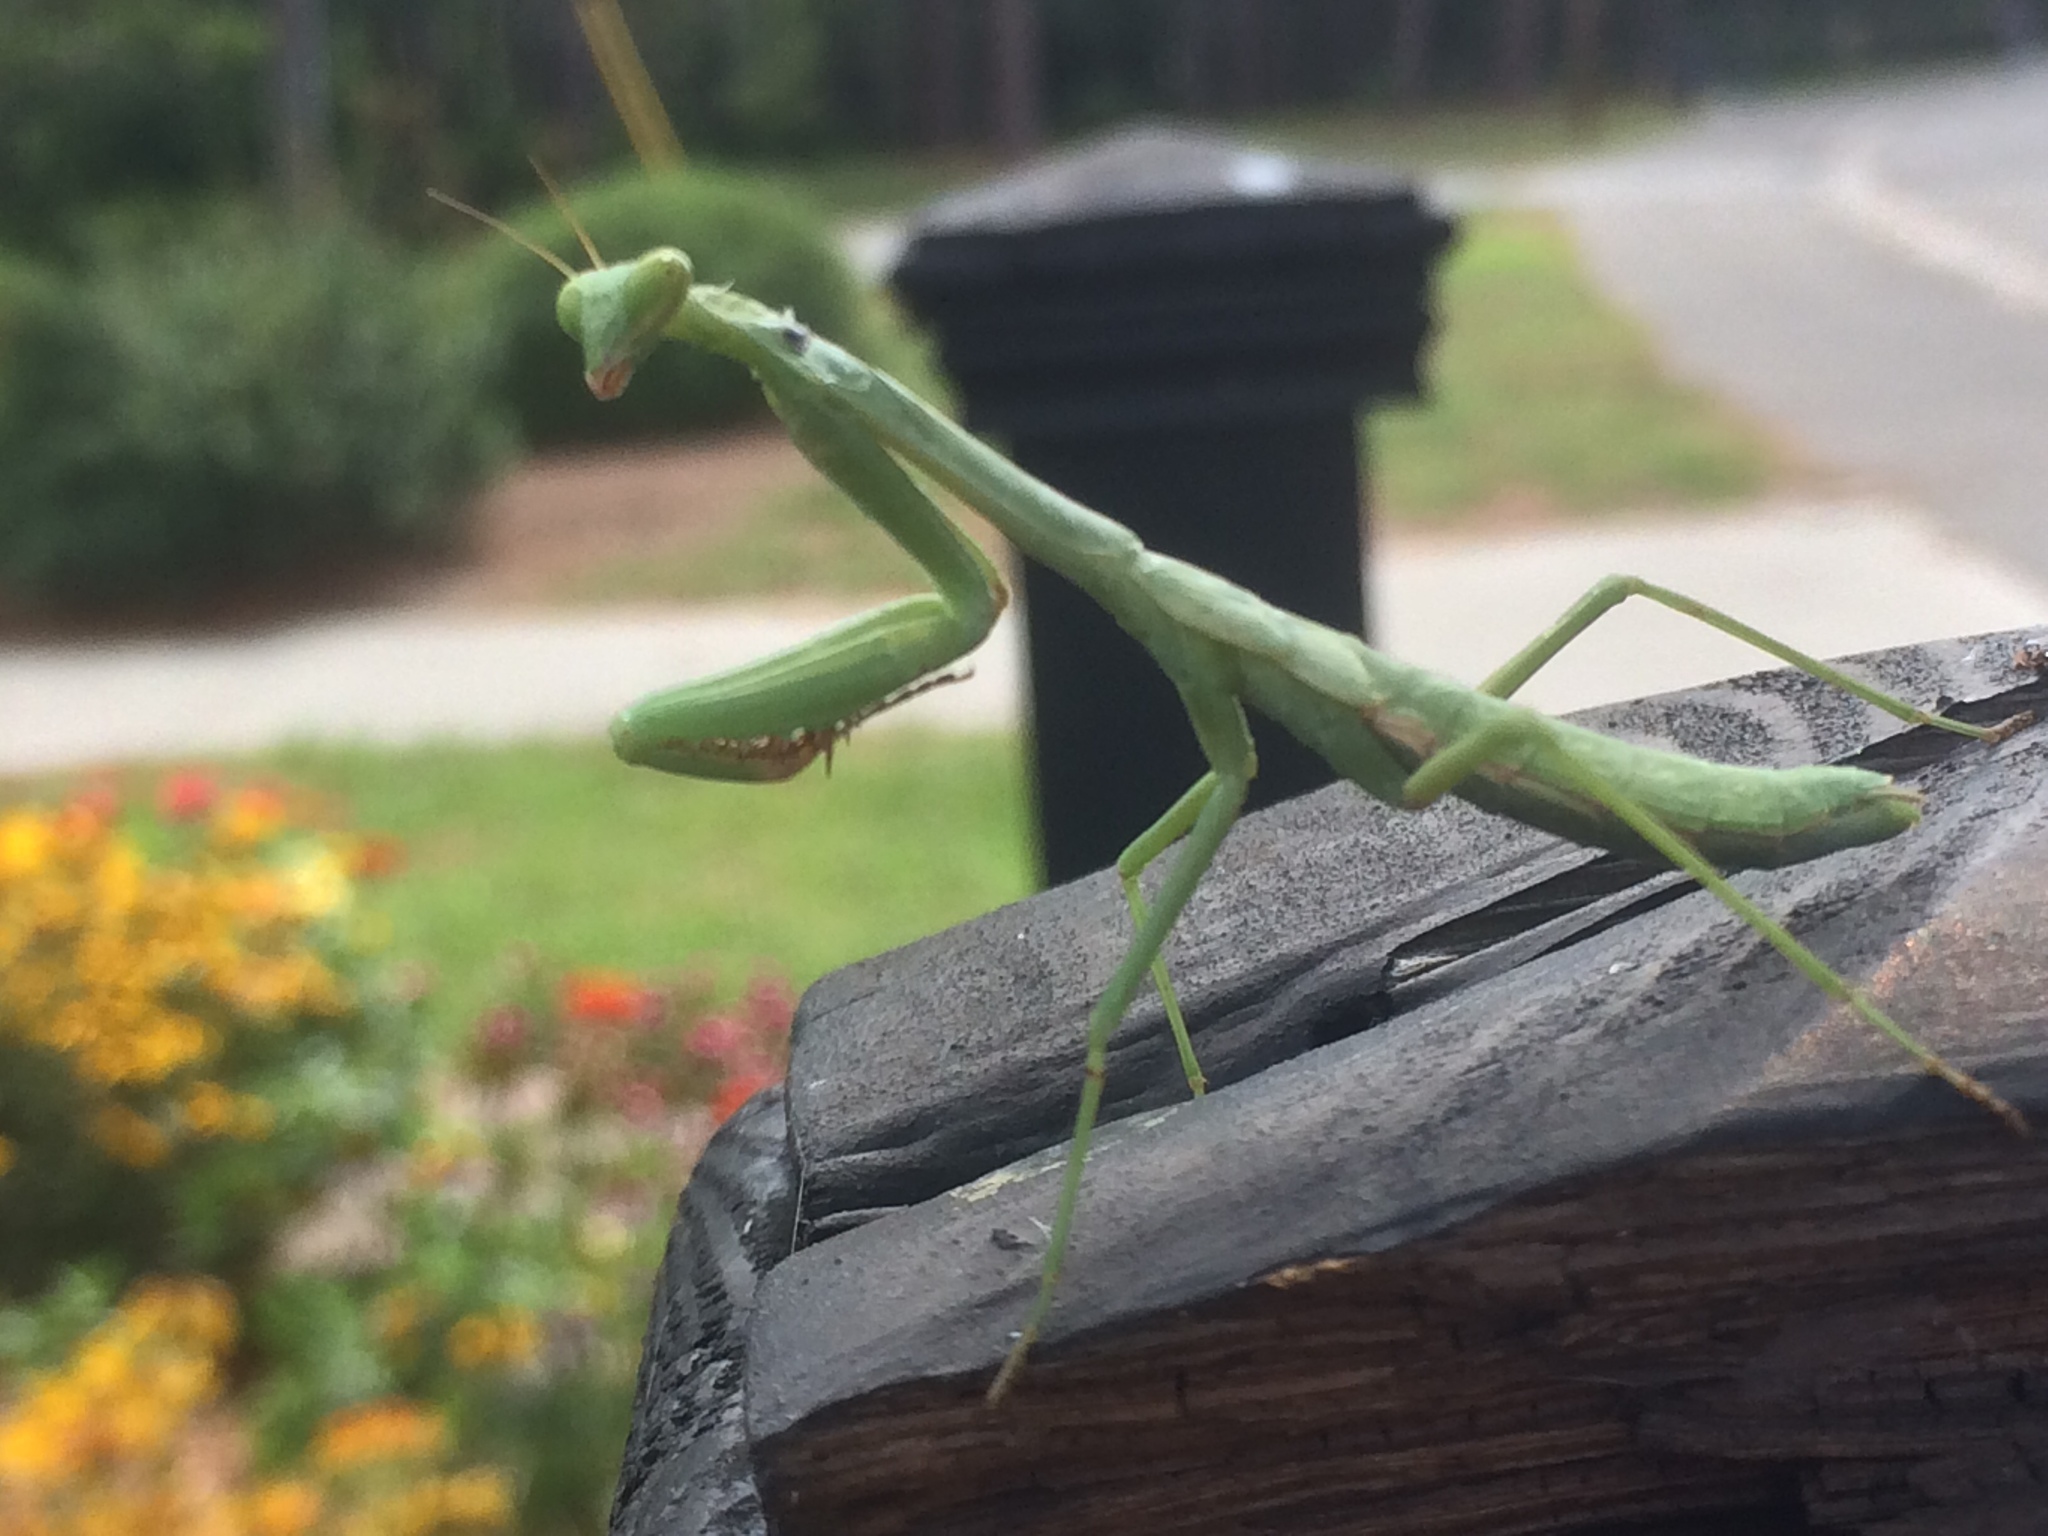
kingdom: Animalia
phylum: Arthropoda
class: Insecta
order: Mantodea
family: Mantidae
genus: Stagmomantis
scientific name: Stagmomantis carolina
